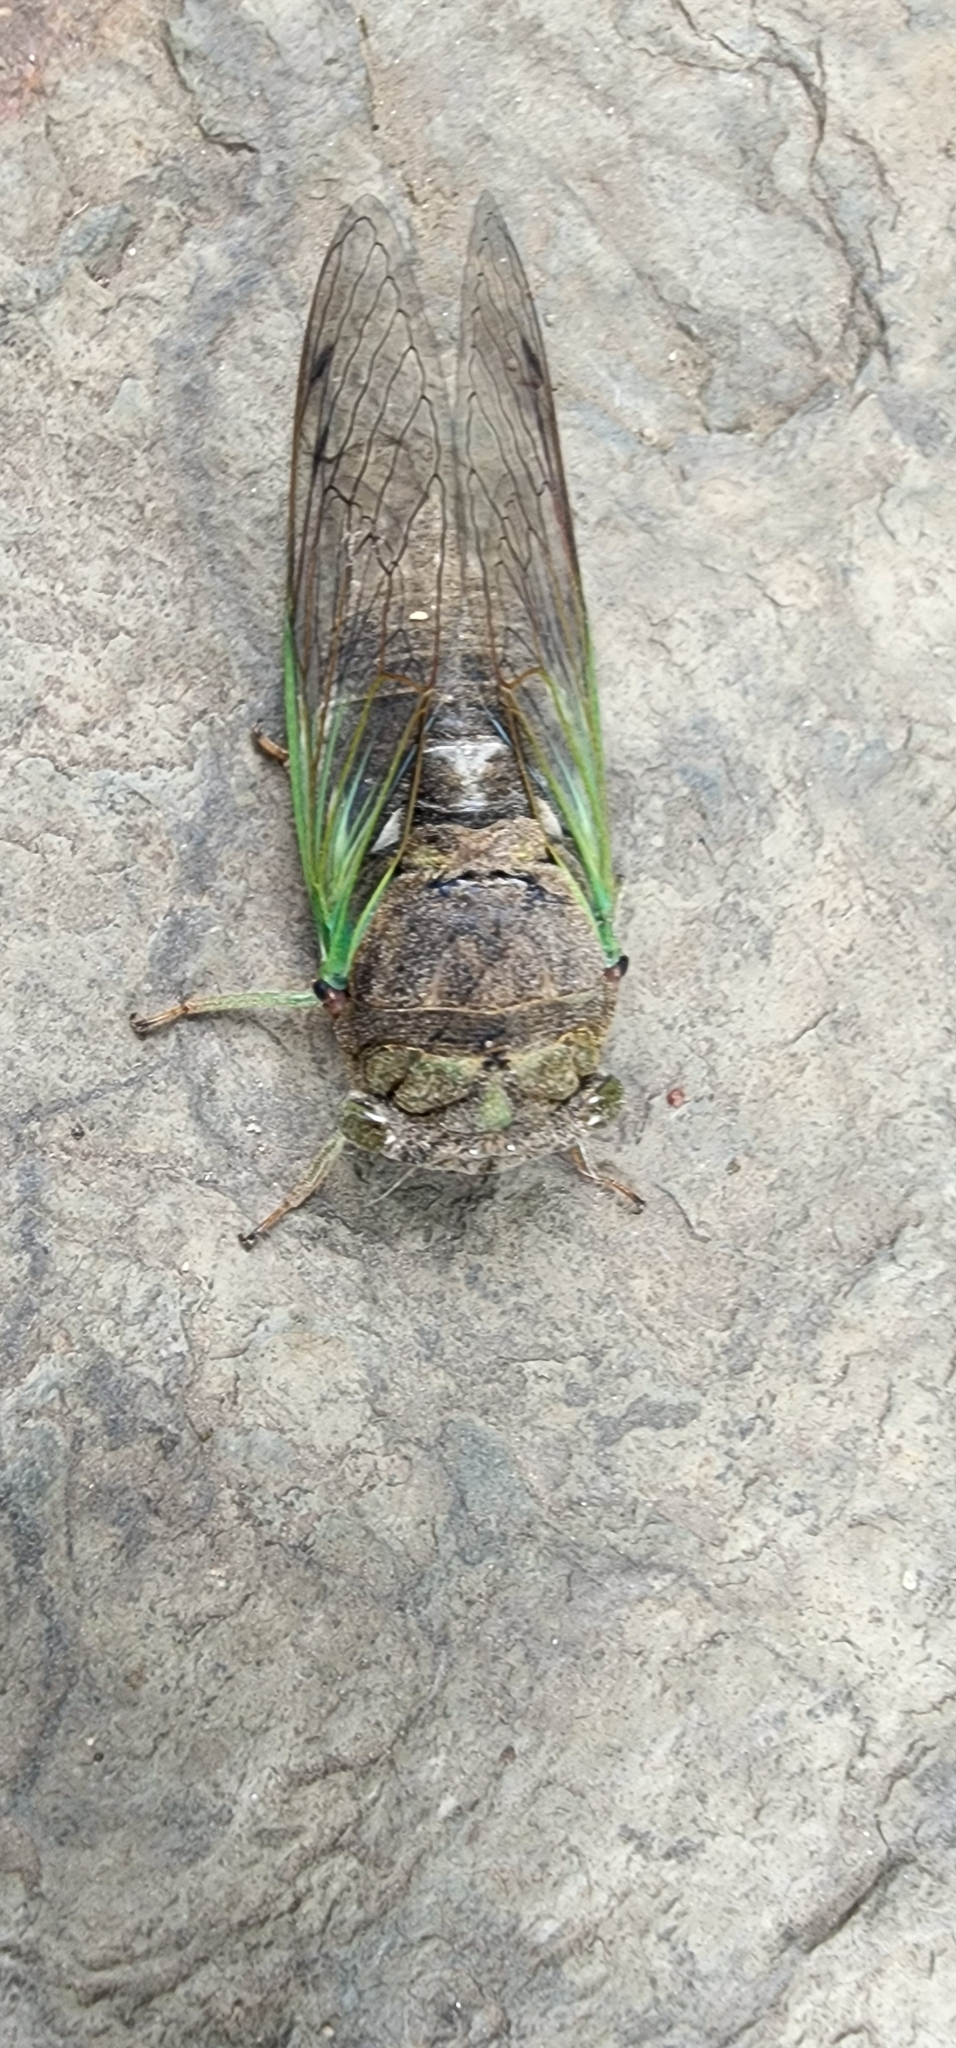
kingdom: Animalia
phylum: Arthropoda
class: Insecta
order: Hemiptera
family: Cicadidae
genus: Neotibicen
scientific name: Neotibicen tibicen
